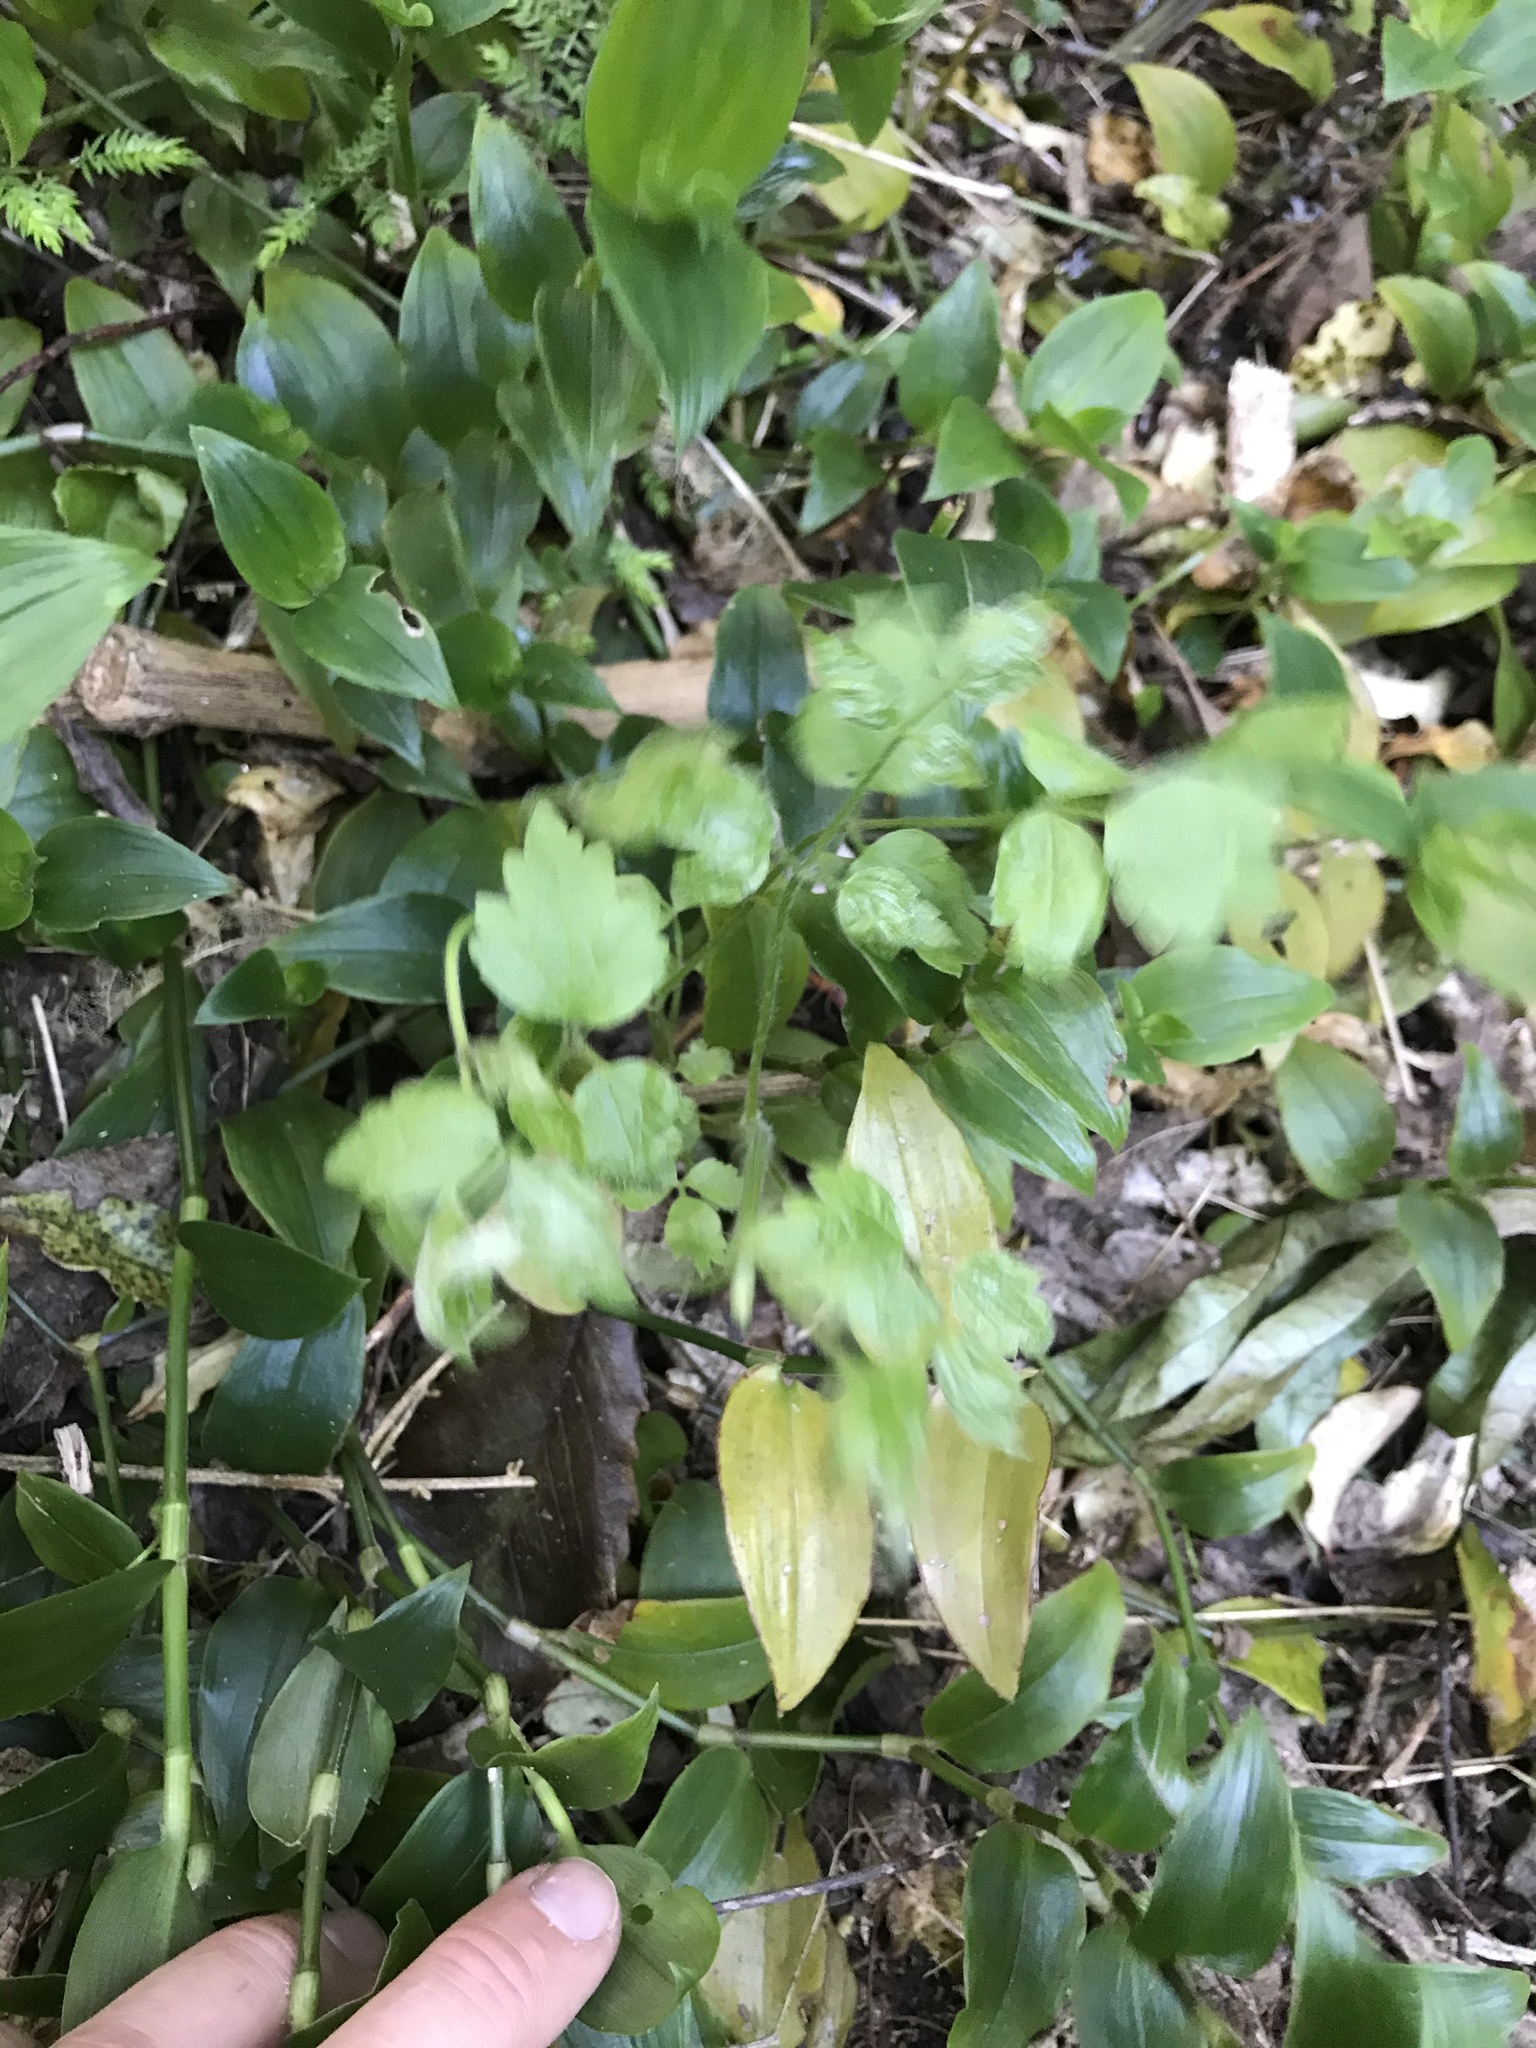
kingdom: Plantae
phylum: Tracheophyta
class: Magnoliopsida
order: Ranunculales
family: Ranunculaceae
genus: Clematis
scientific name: Clematis vitalba
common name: Evergreen clematis
